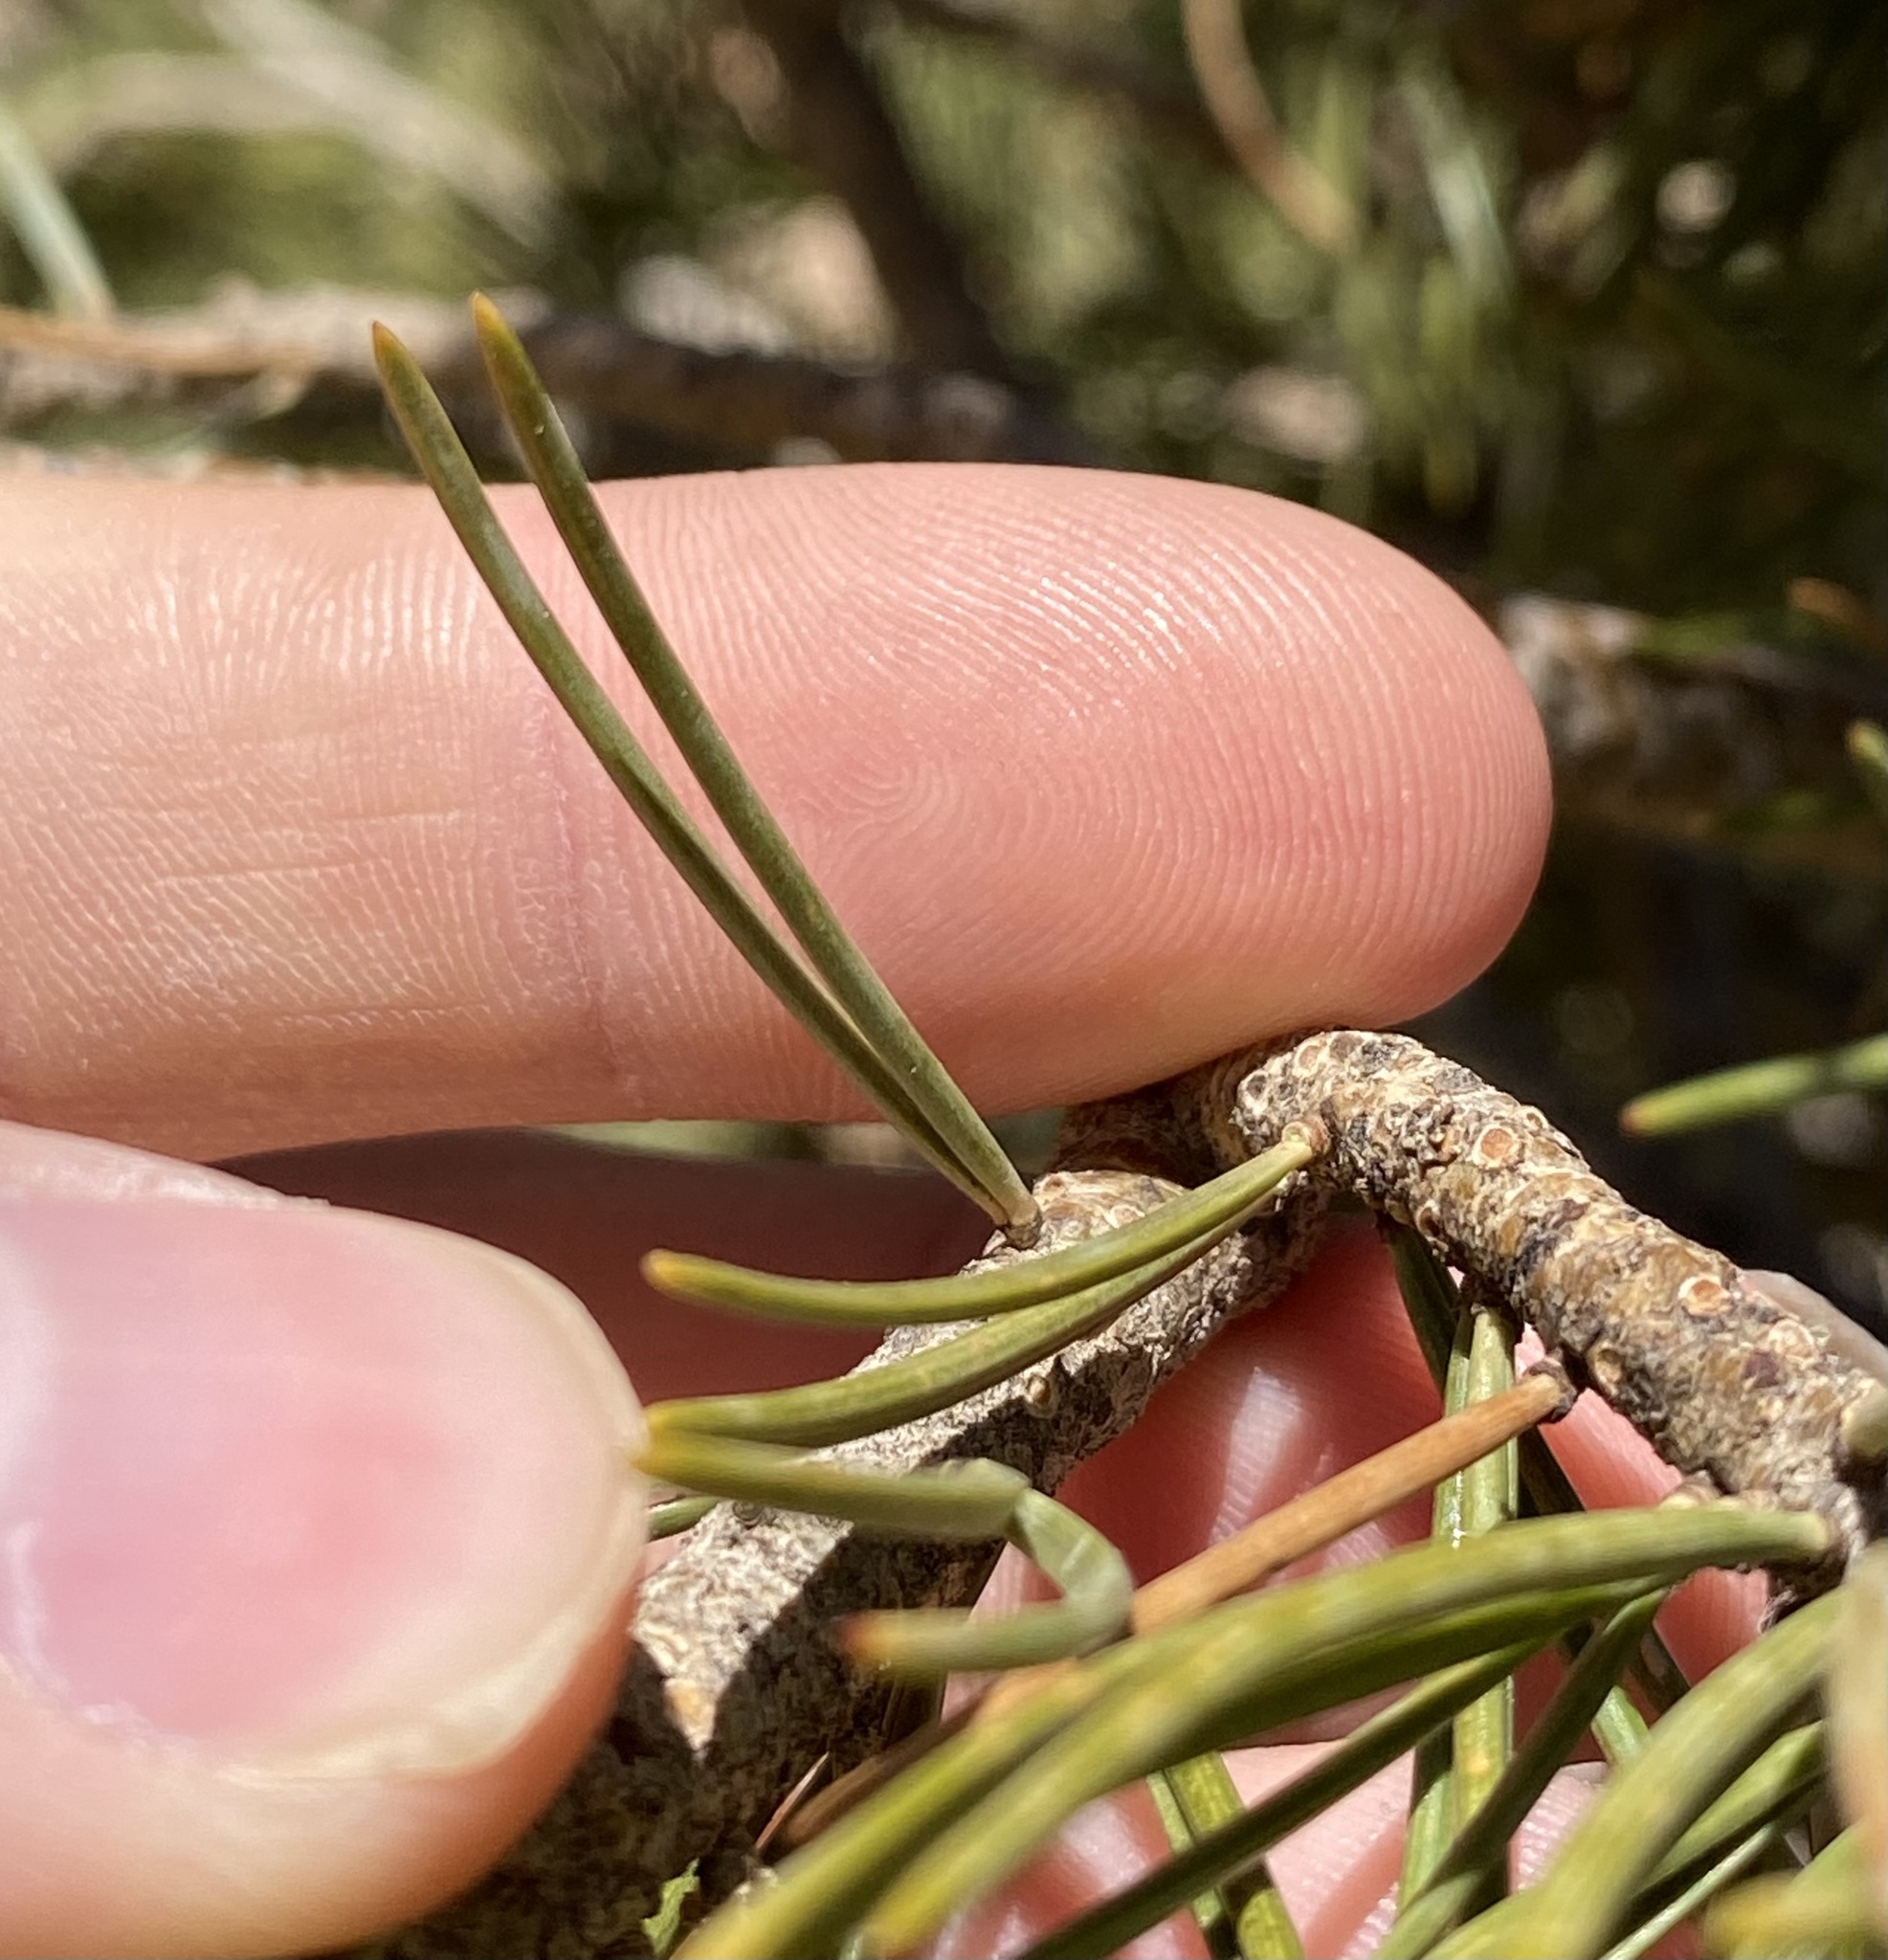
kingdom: Plantae
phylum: Tracheophyta
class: Pinopsida
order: Pinales
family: Pinaceae
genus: Pinus
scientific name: Pinus edulis
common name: Colorado pinyon
